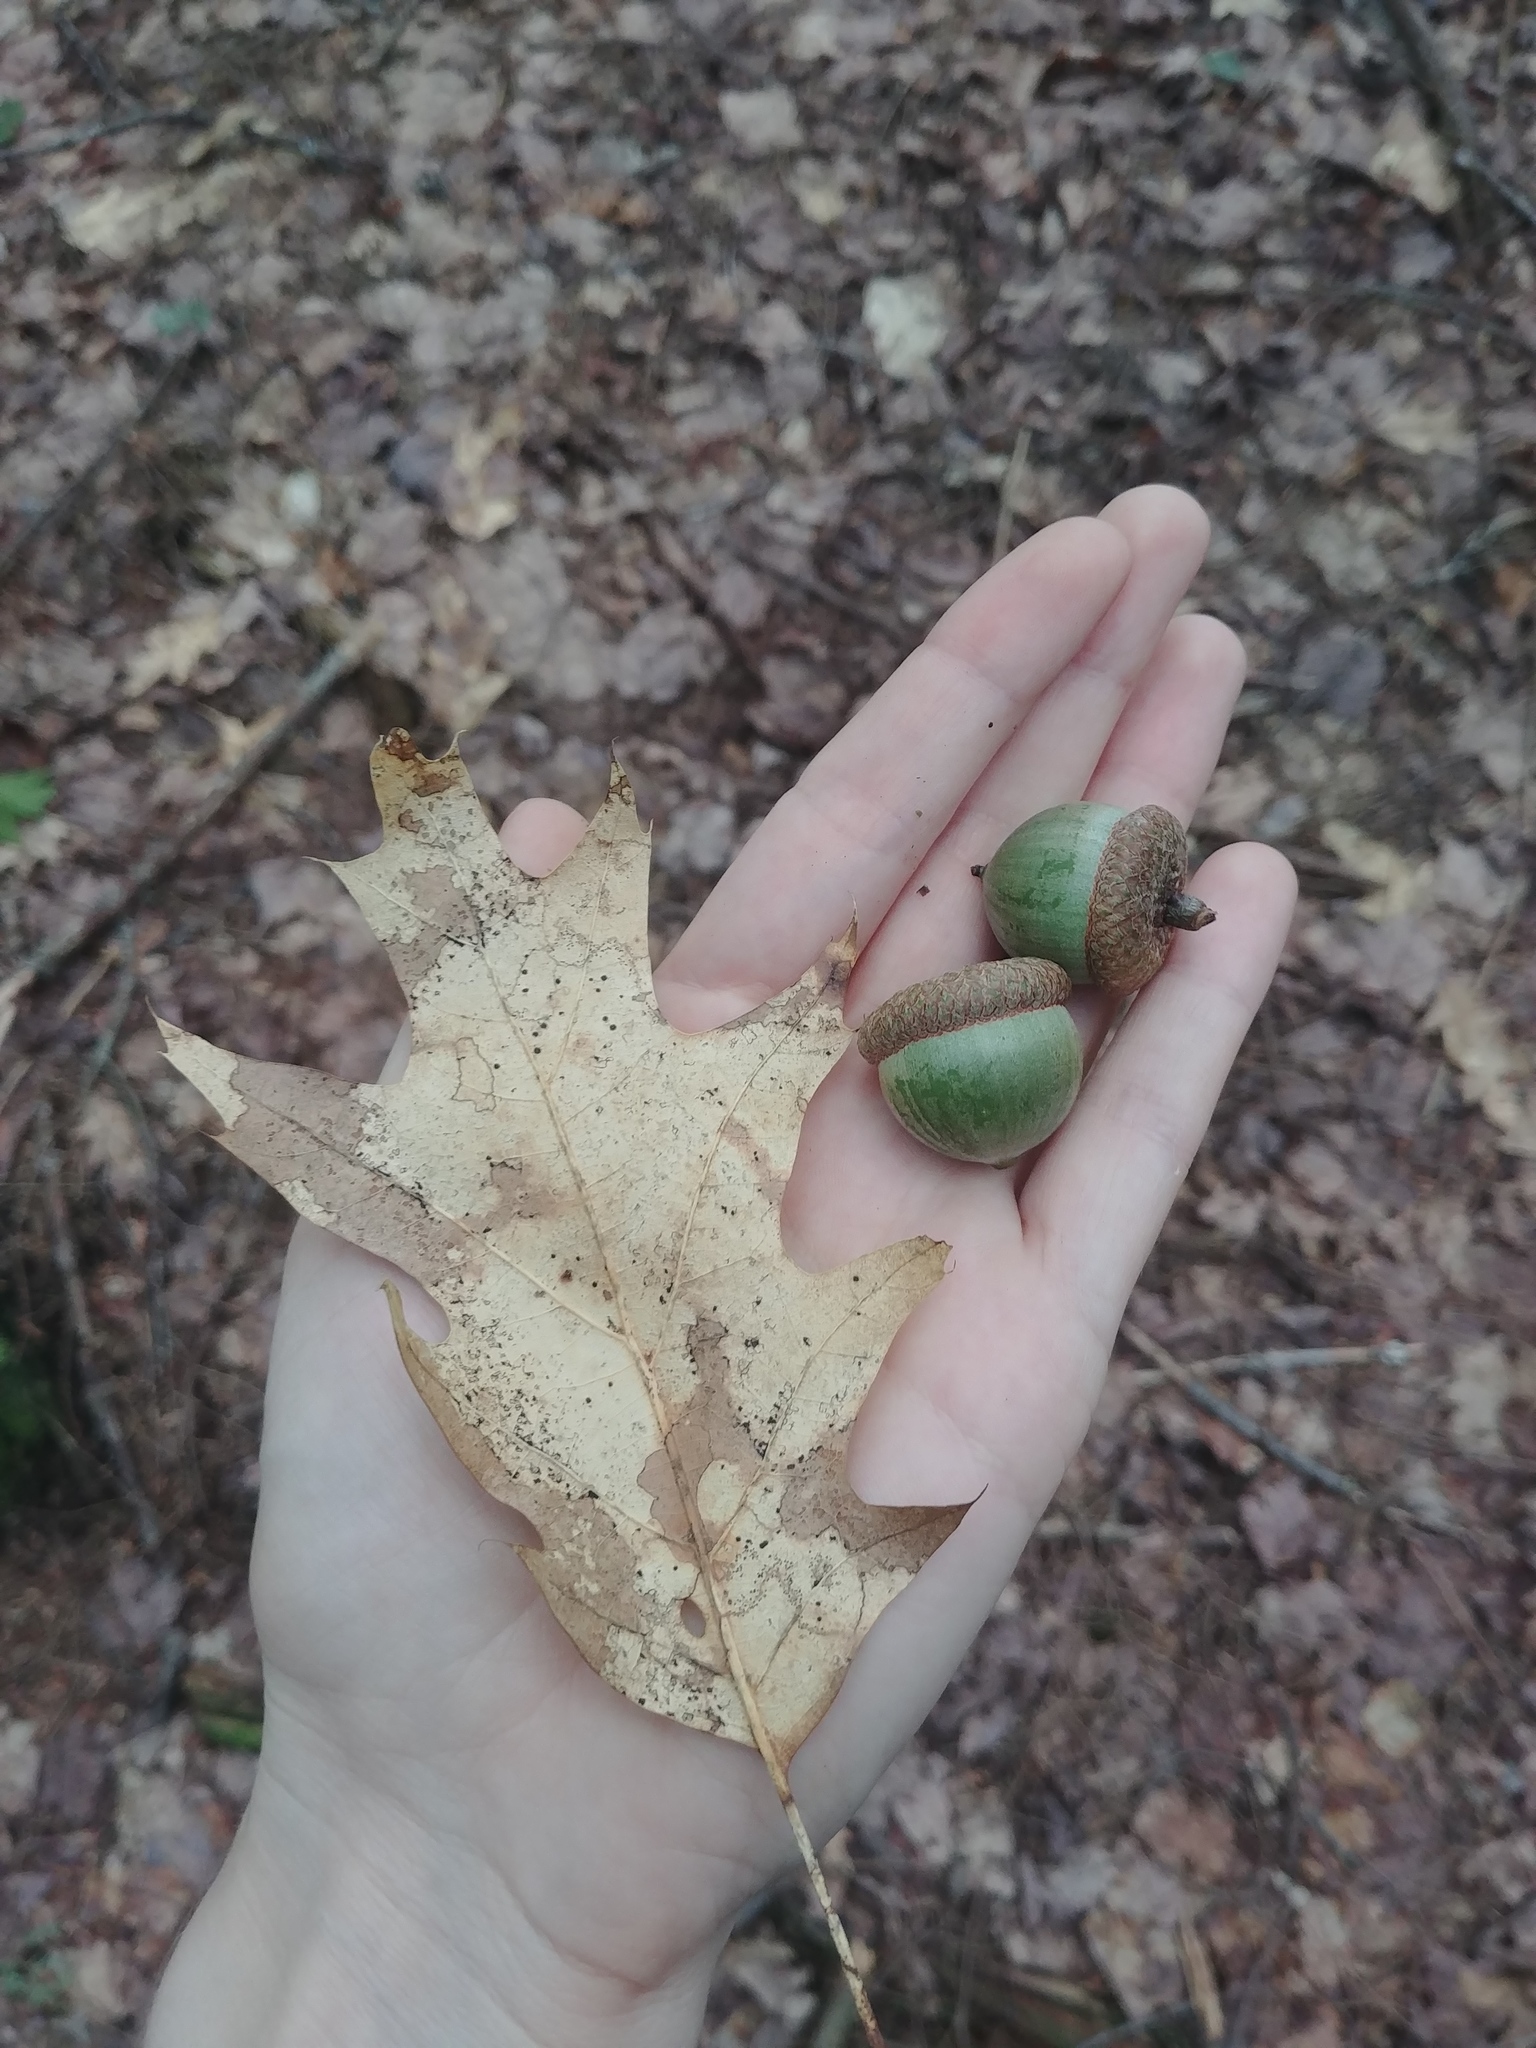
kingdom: Plantae
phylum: Tracheophyta
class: Magnoliopsida
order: Fagales
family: Fagaceae
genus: Quercus
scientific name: Quercus rubra
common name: Red oak
